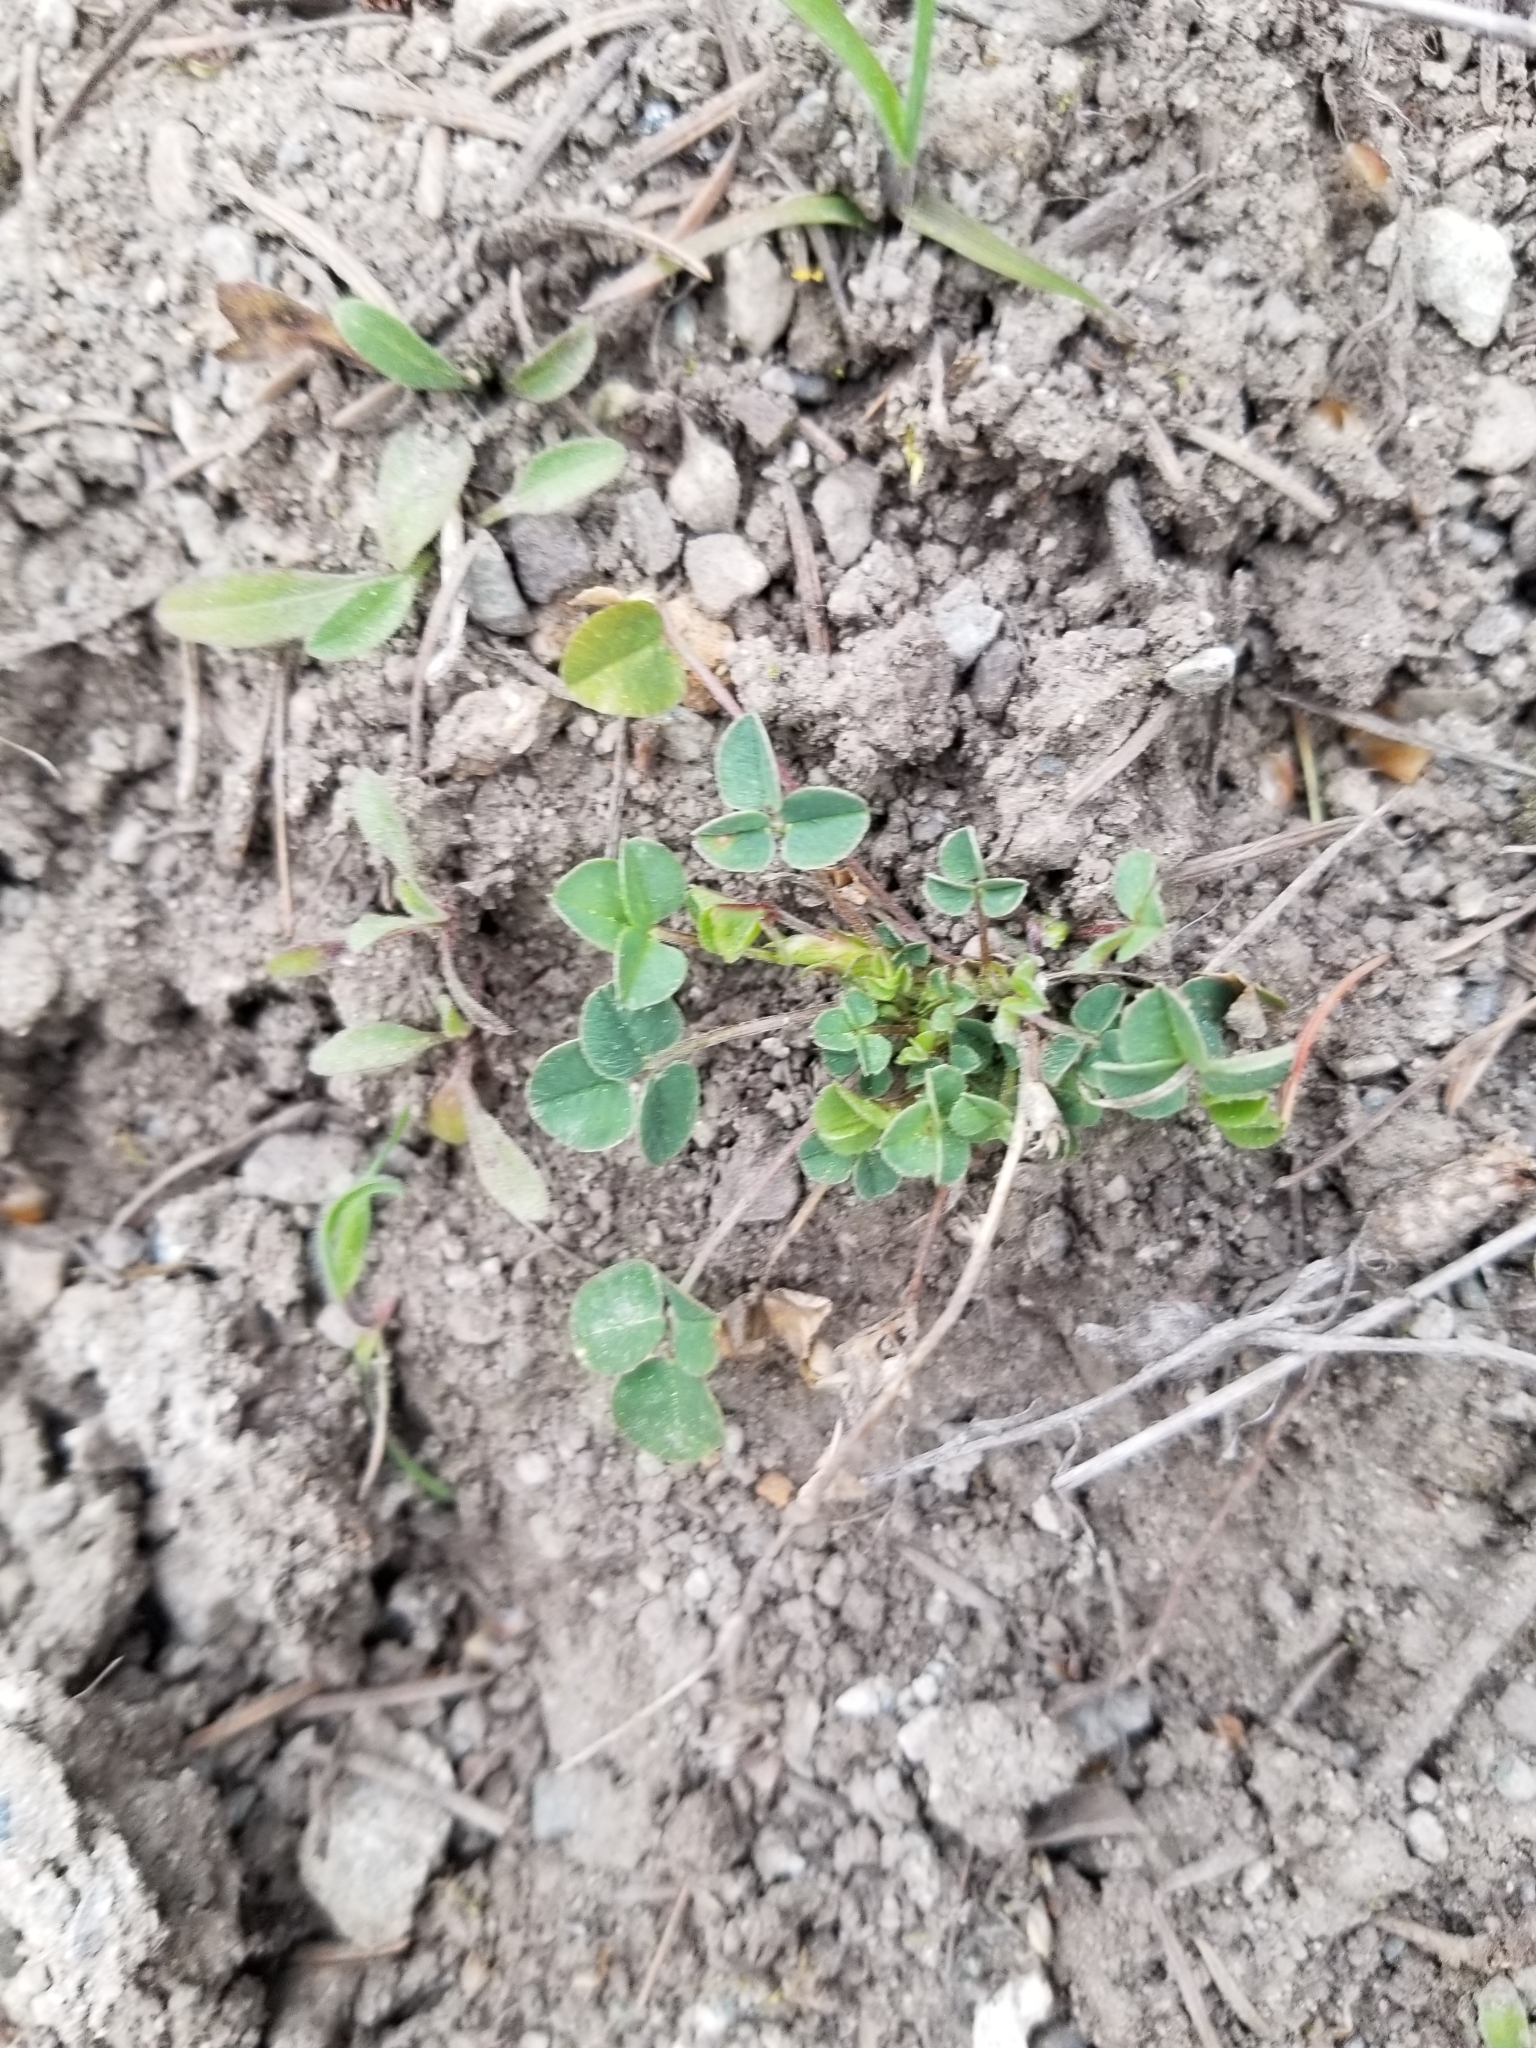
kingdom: Plantae
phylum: Tracheophyta
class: Magnoliopsida
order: Fabales
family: Fabaceae
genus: Medicago
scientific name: Medicago sativa
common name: Alfalfa
